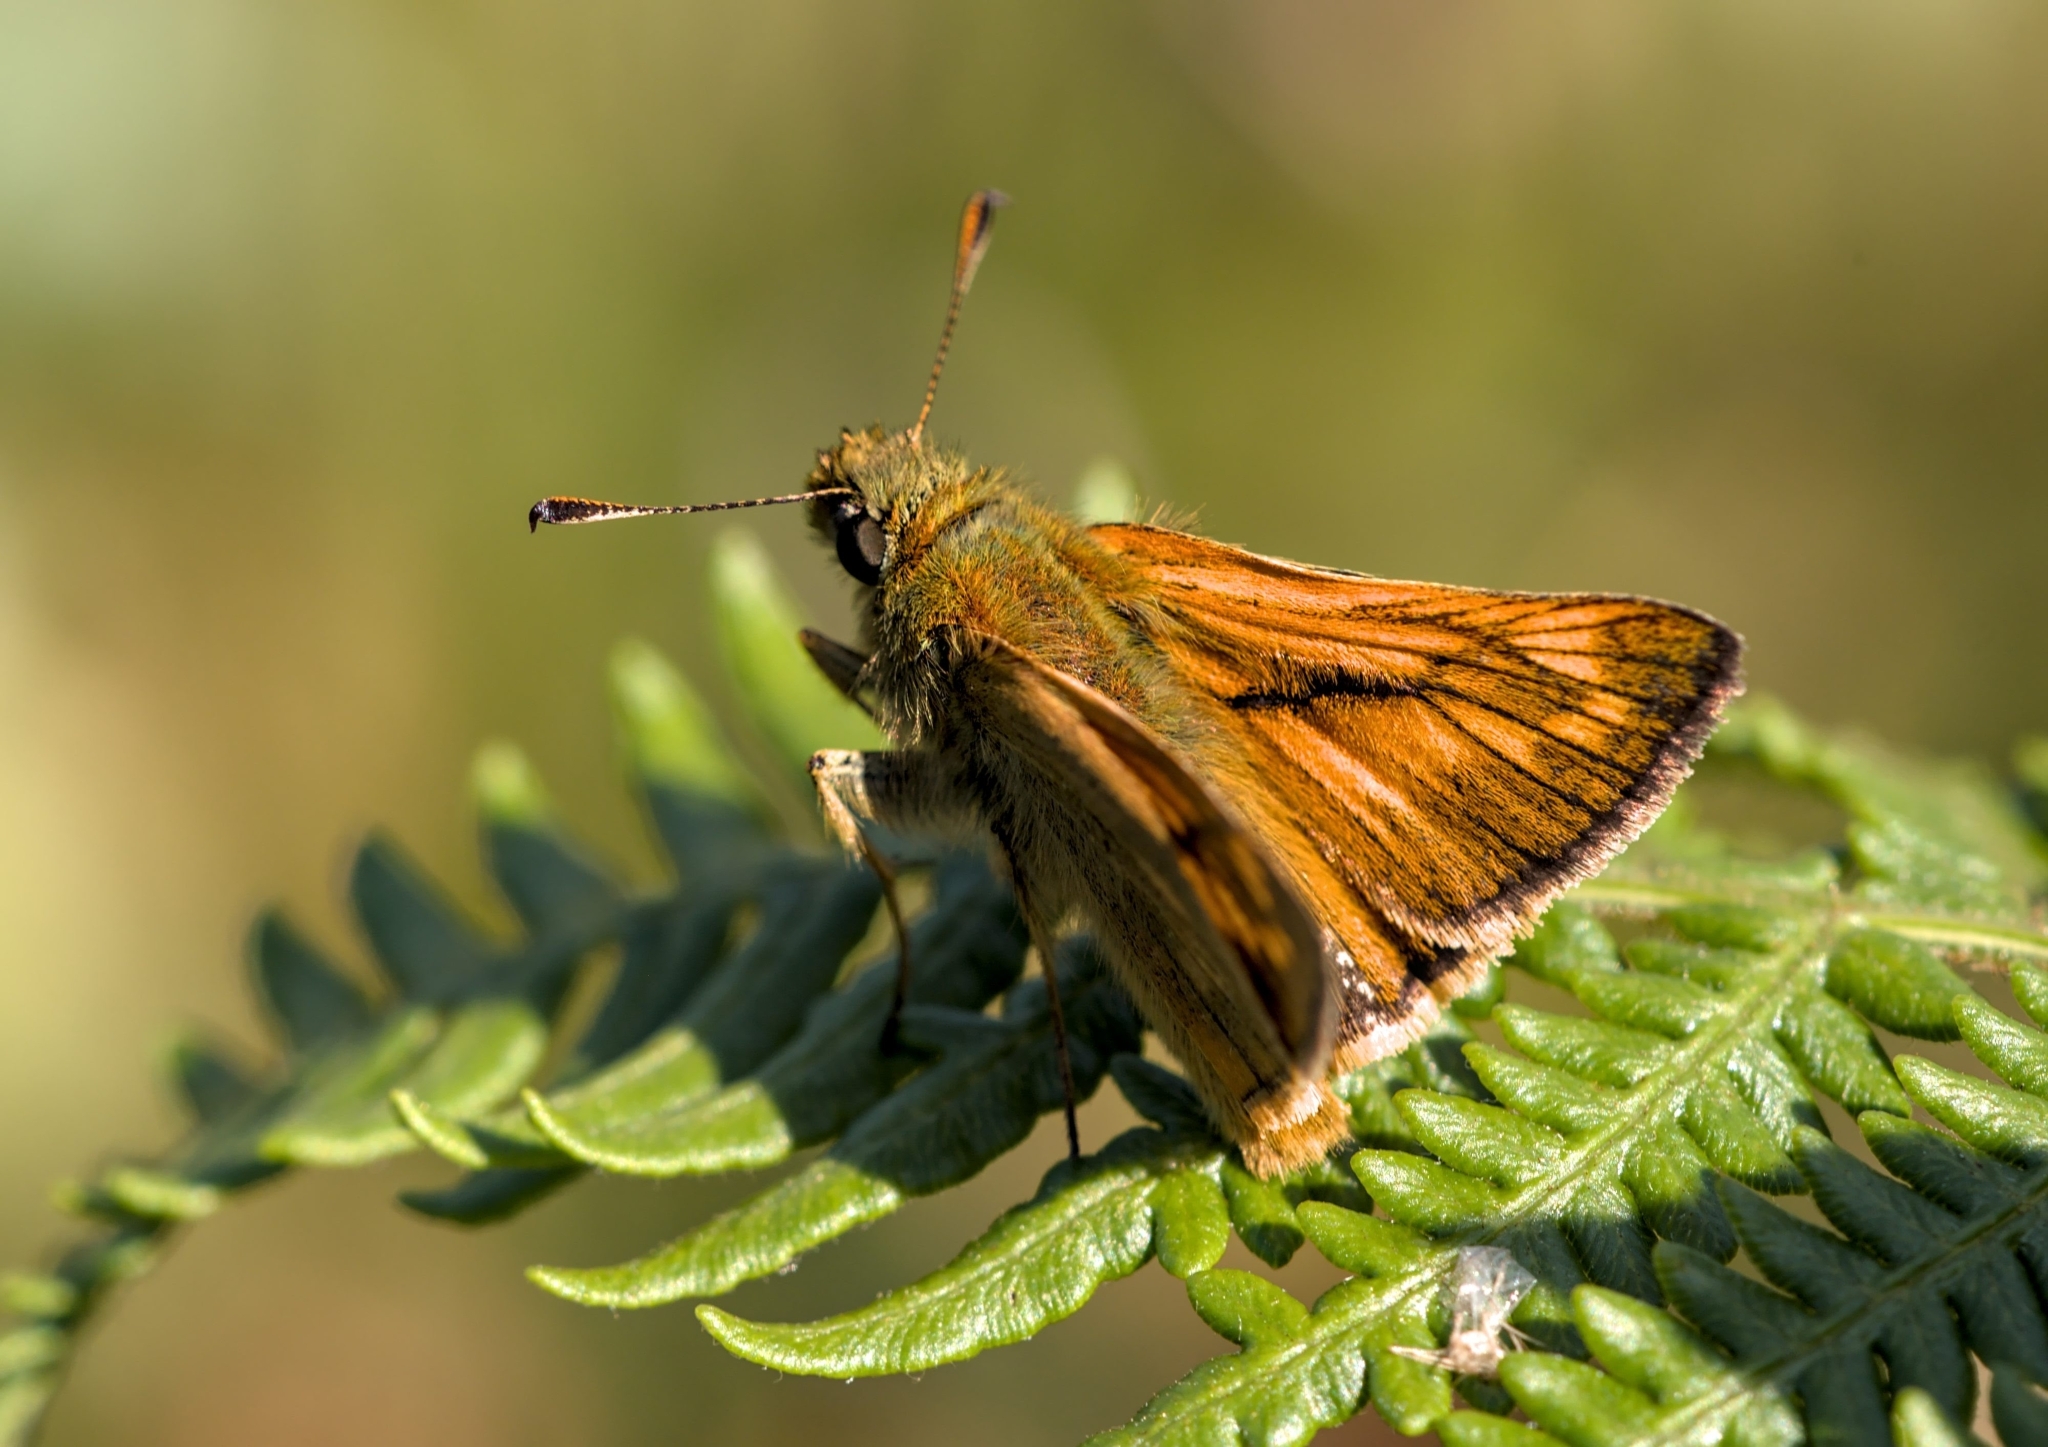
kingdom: Animalia
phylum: Arthropoda
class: Insecta
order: Lepidoptera
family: Hesperiidae
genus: Ochlodes
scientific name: Ochlodes venata
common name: Large skipper
